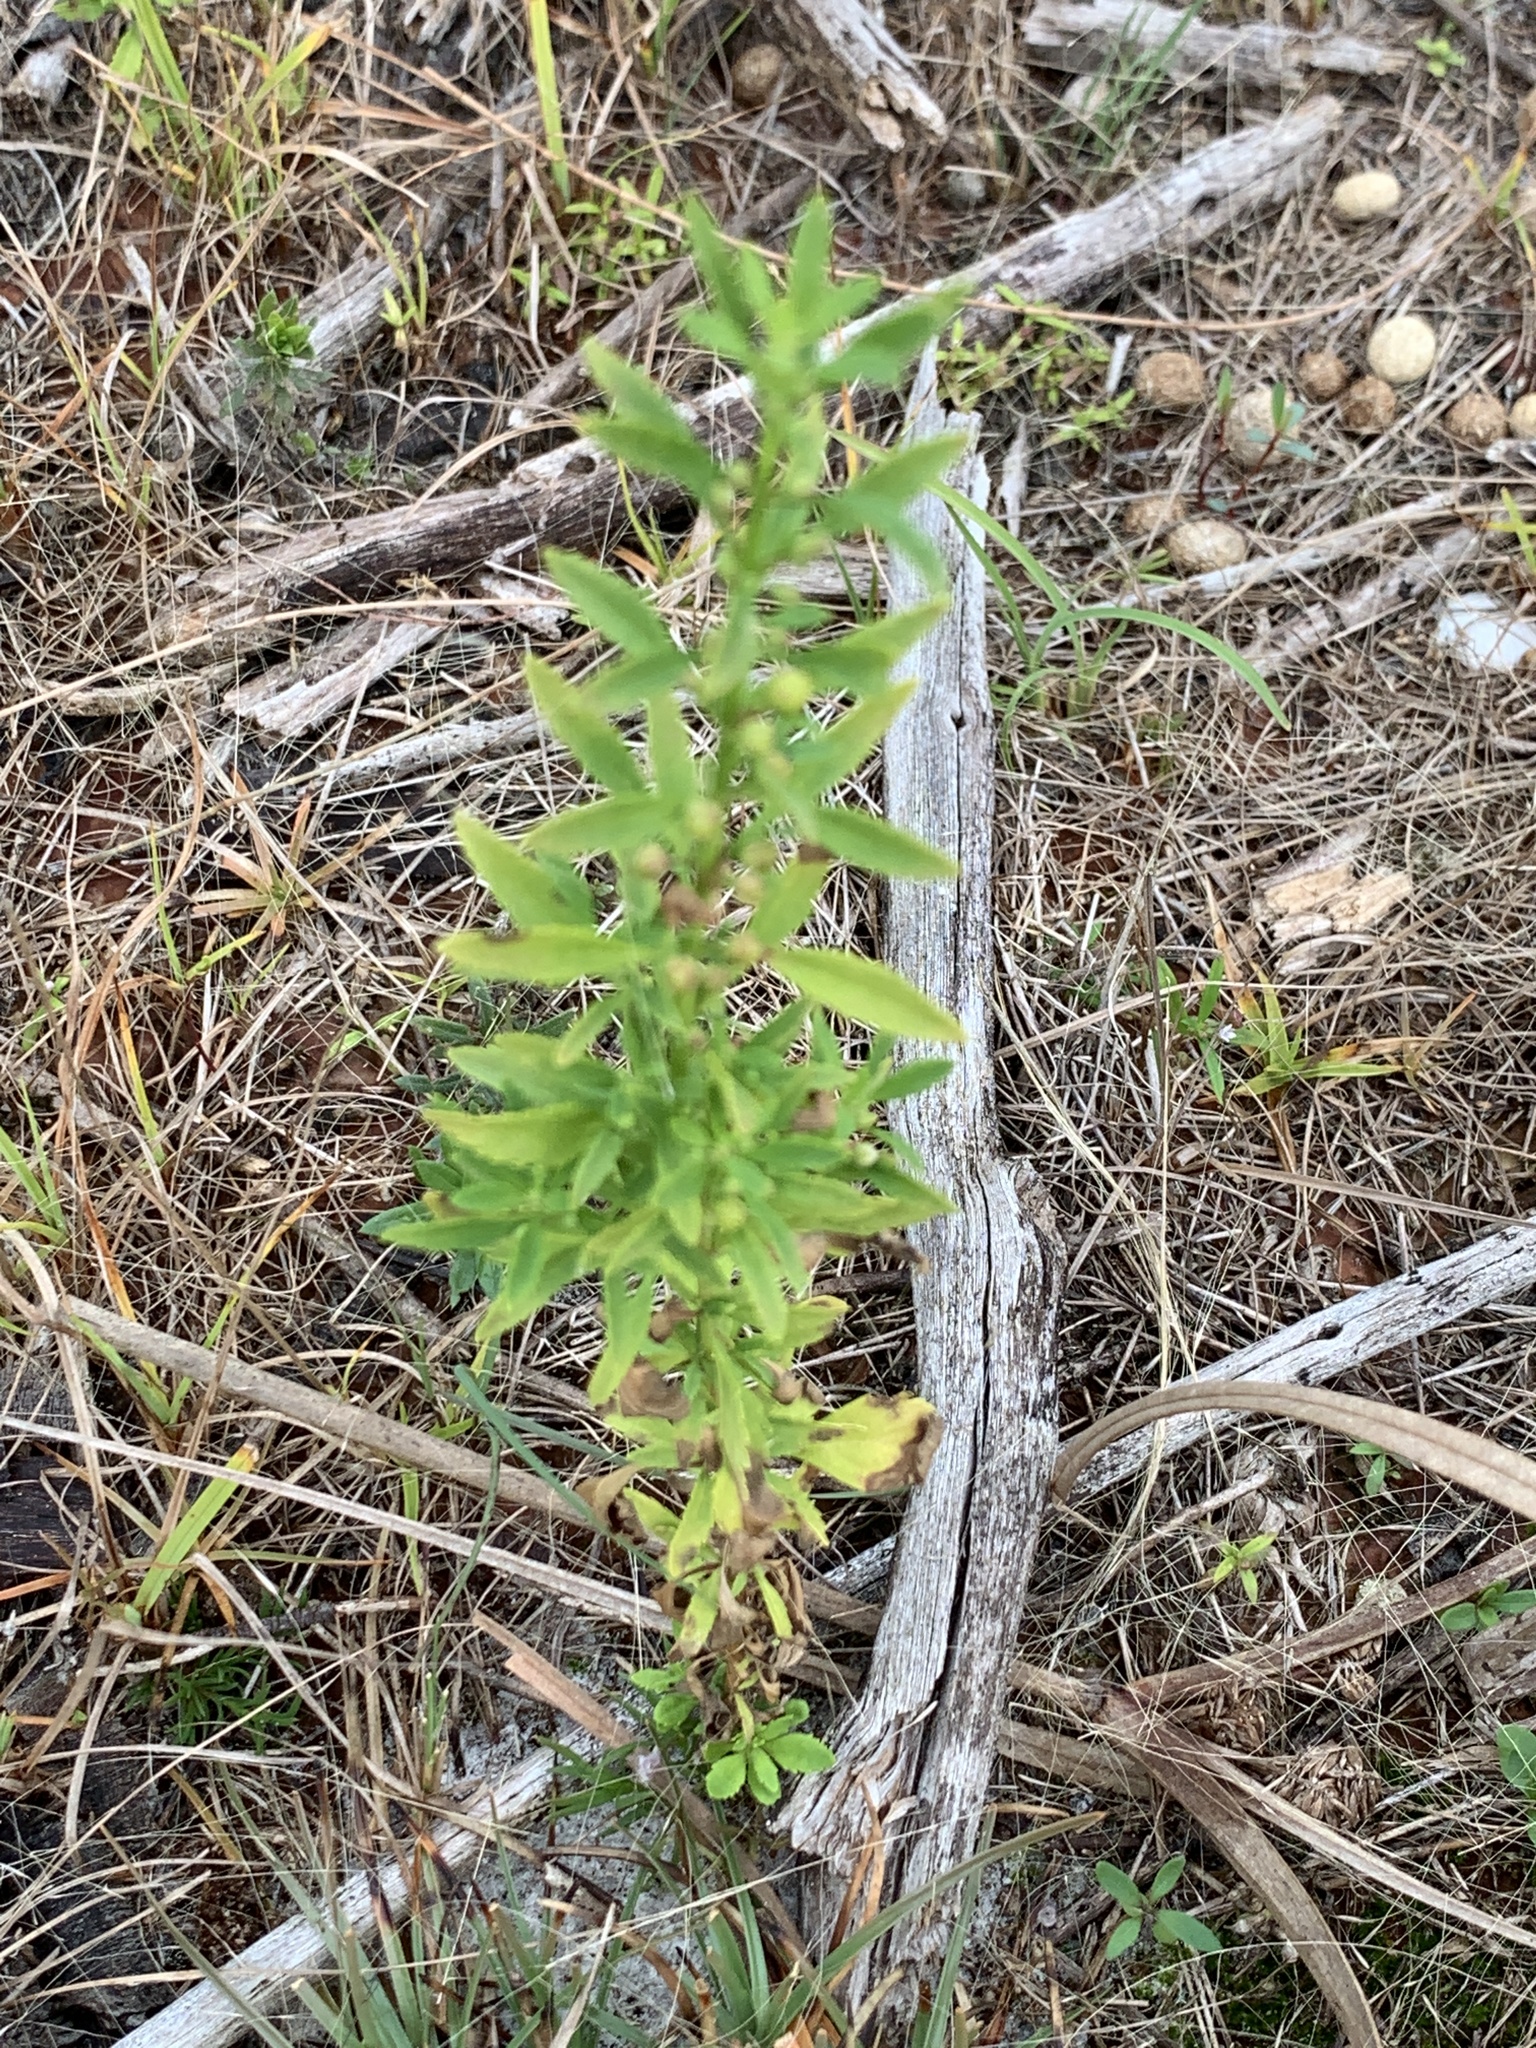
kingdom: Plantae
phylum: Tracheophyta
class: Magnoliopsida
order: Lamiales
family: Plantaginaceae
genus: Scoparia
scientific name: Scoparia dulcis
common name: Scoparia-weed
